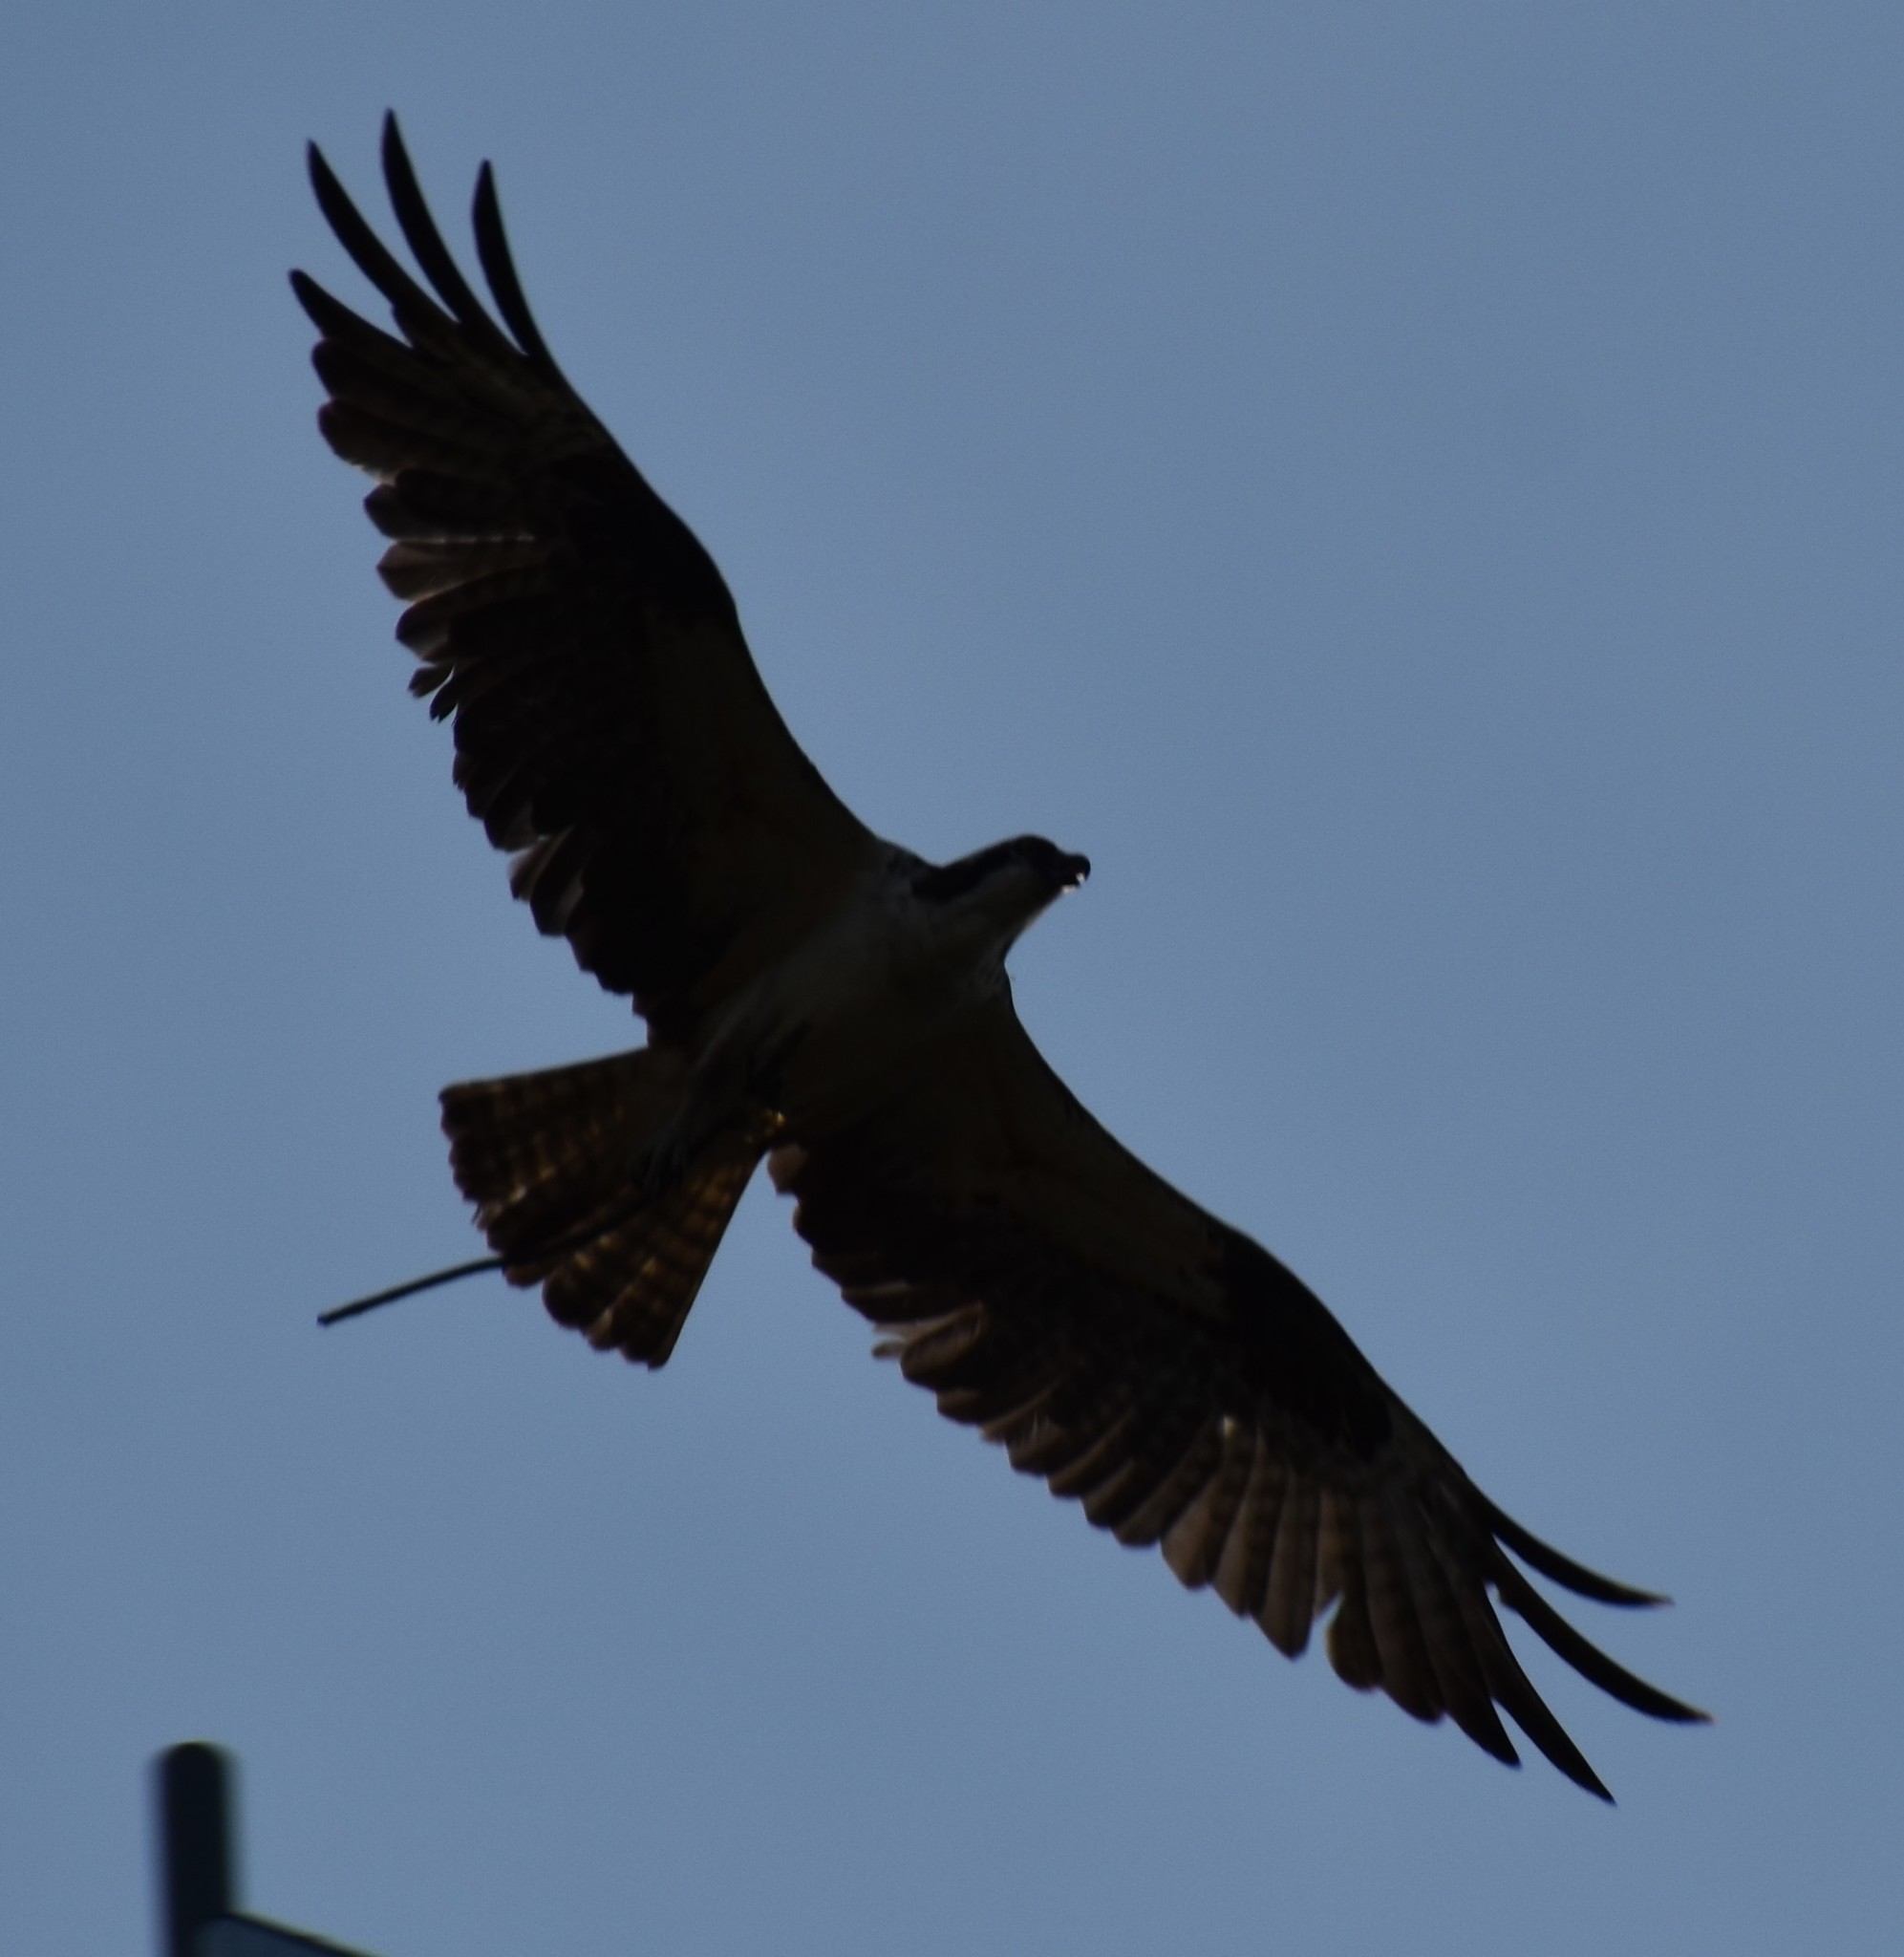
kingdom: Animalia
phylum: Chordata
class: Aves
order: Accipitriformes
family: Pandionidae
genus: Pandion
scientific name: Pandion haliaetus
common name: Osprey
